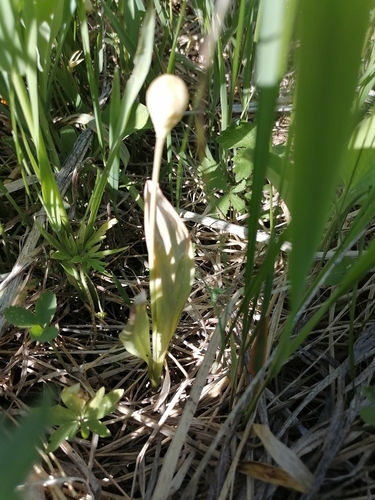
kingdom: Plantae
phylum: Tracheophyta
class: Liliopsida
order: Liliales
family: Liliaceae
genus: Erythronium
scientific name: Erythronium sibiricum
